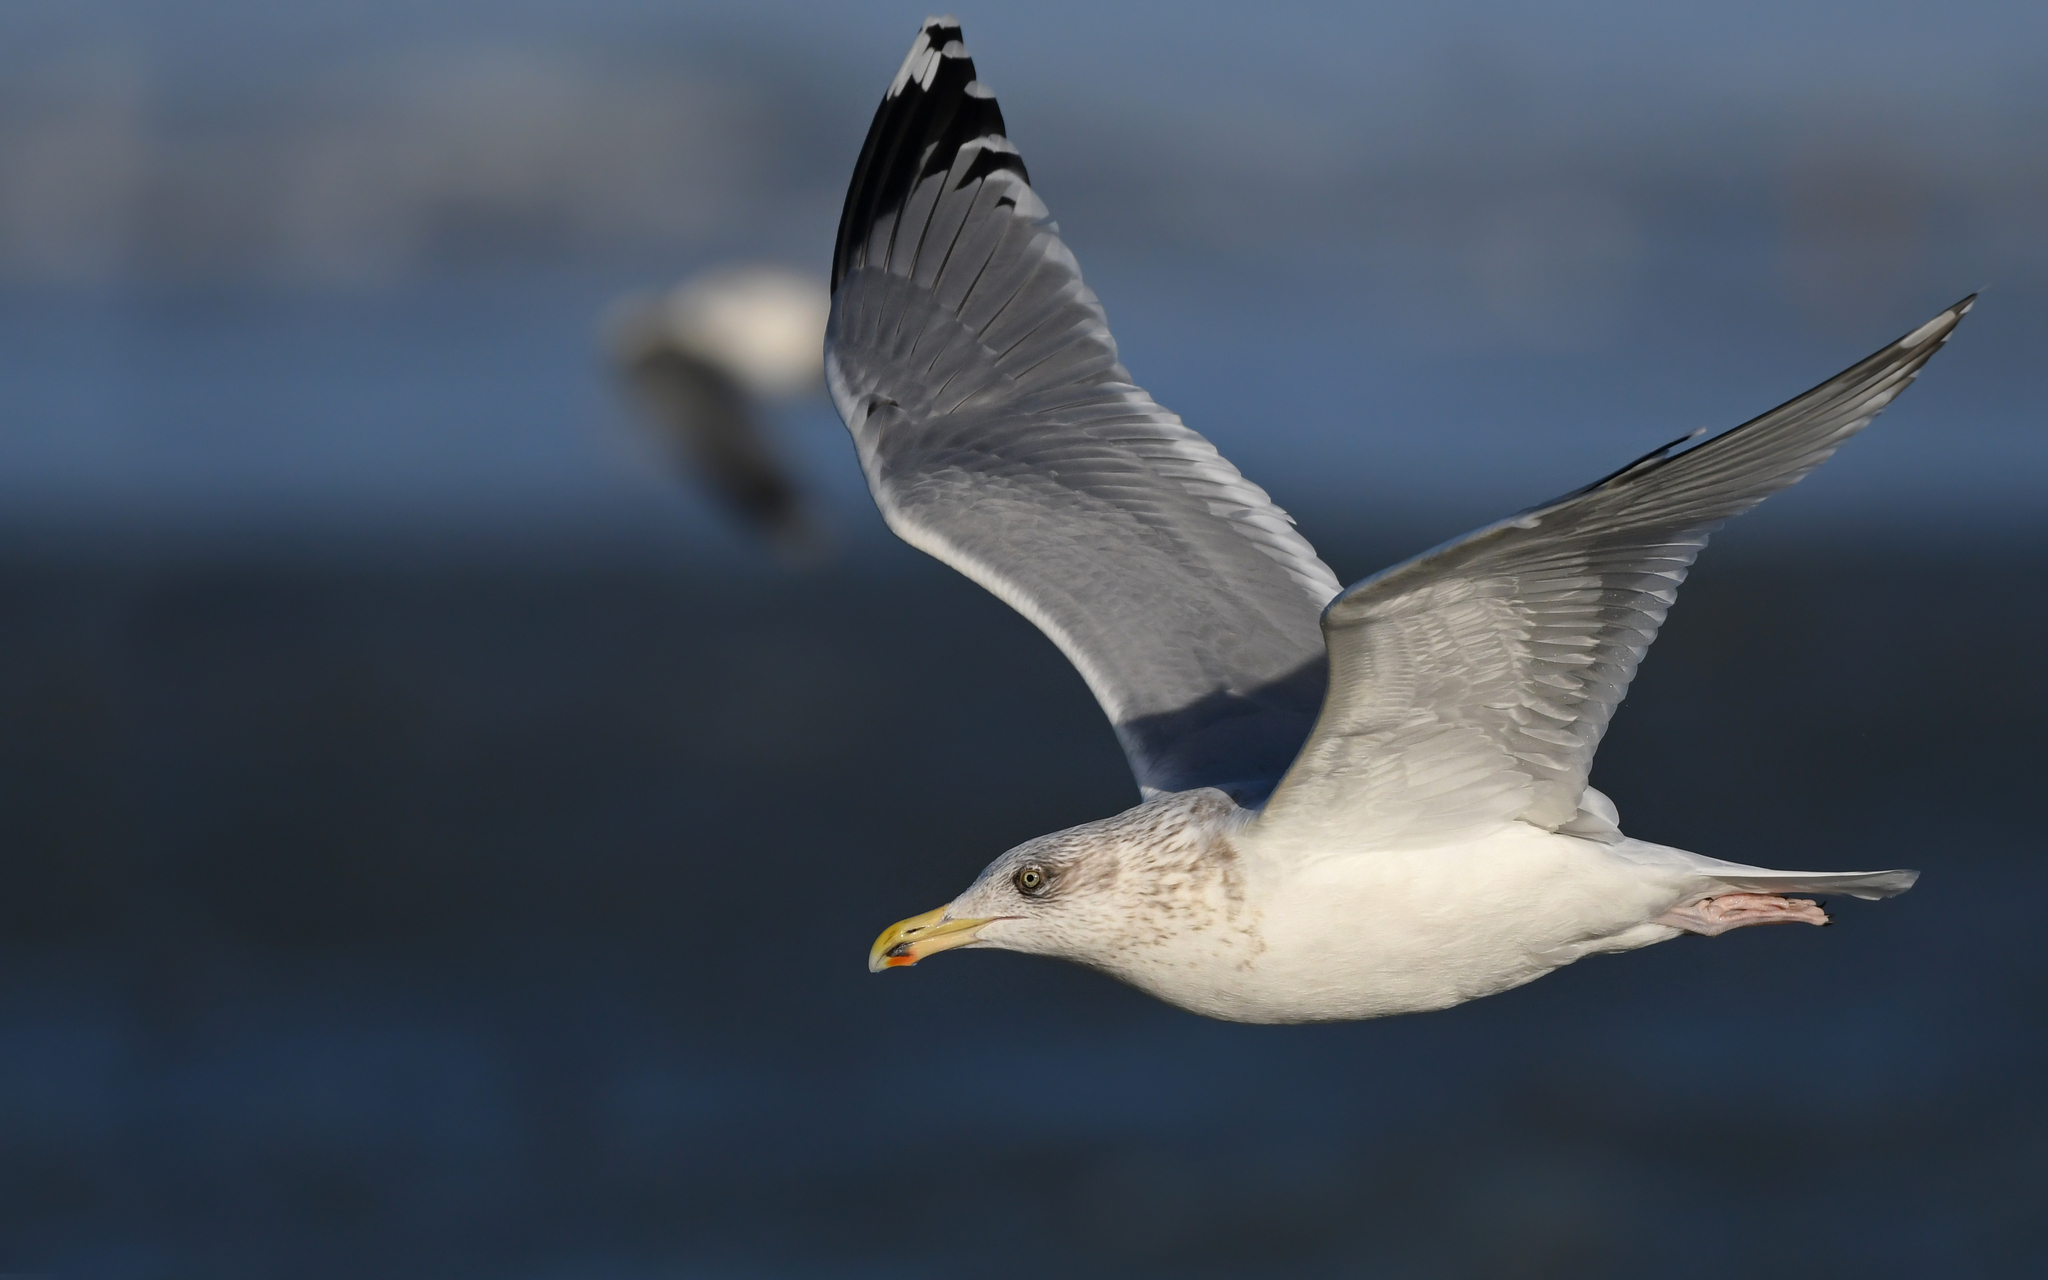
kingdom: Animalia
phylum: Chordata
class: Aves
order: Charadriiformes
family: Laridae
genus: Larus
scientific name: Larus argentatus
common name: Herring gull
